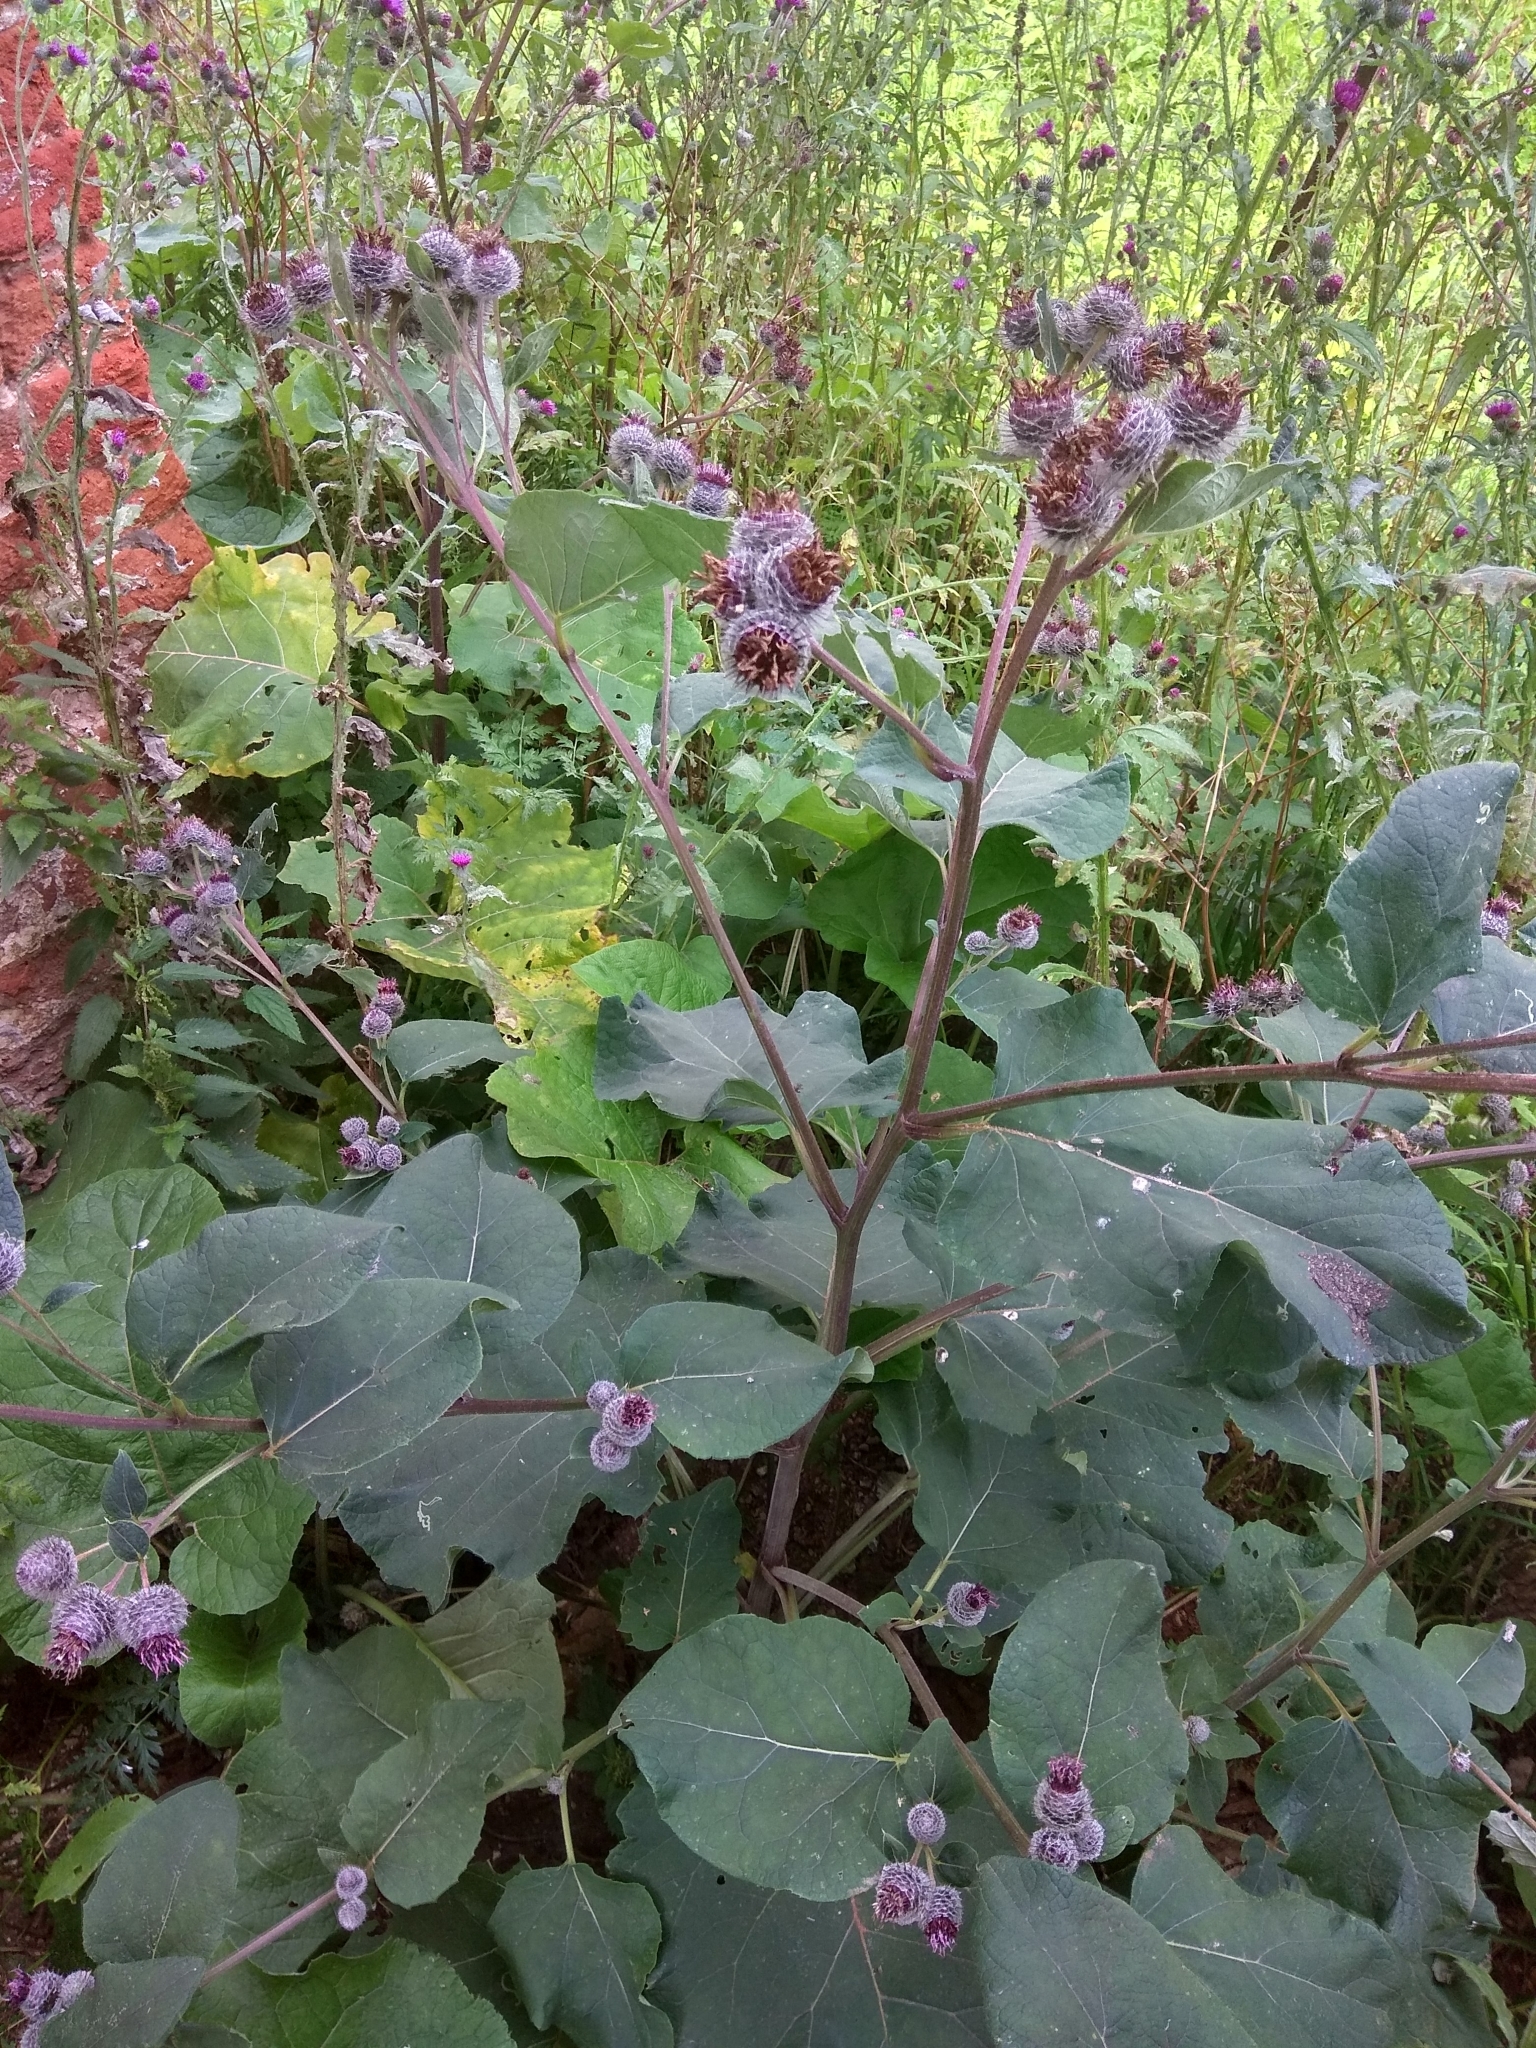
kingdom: Plantae
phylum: Tracheophyta
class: Magnoliopsida
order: Asterales
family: Asteraceae
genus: Arctium
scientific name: Arctium tomentosum
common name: Woolly burdock
